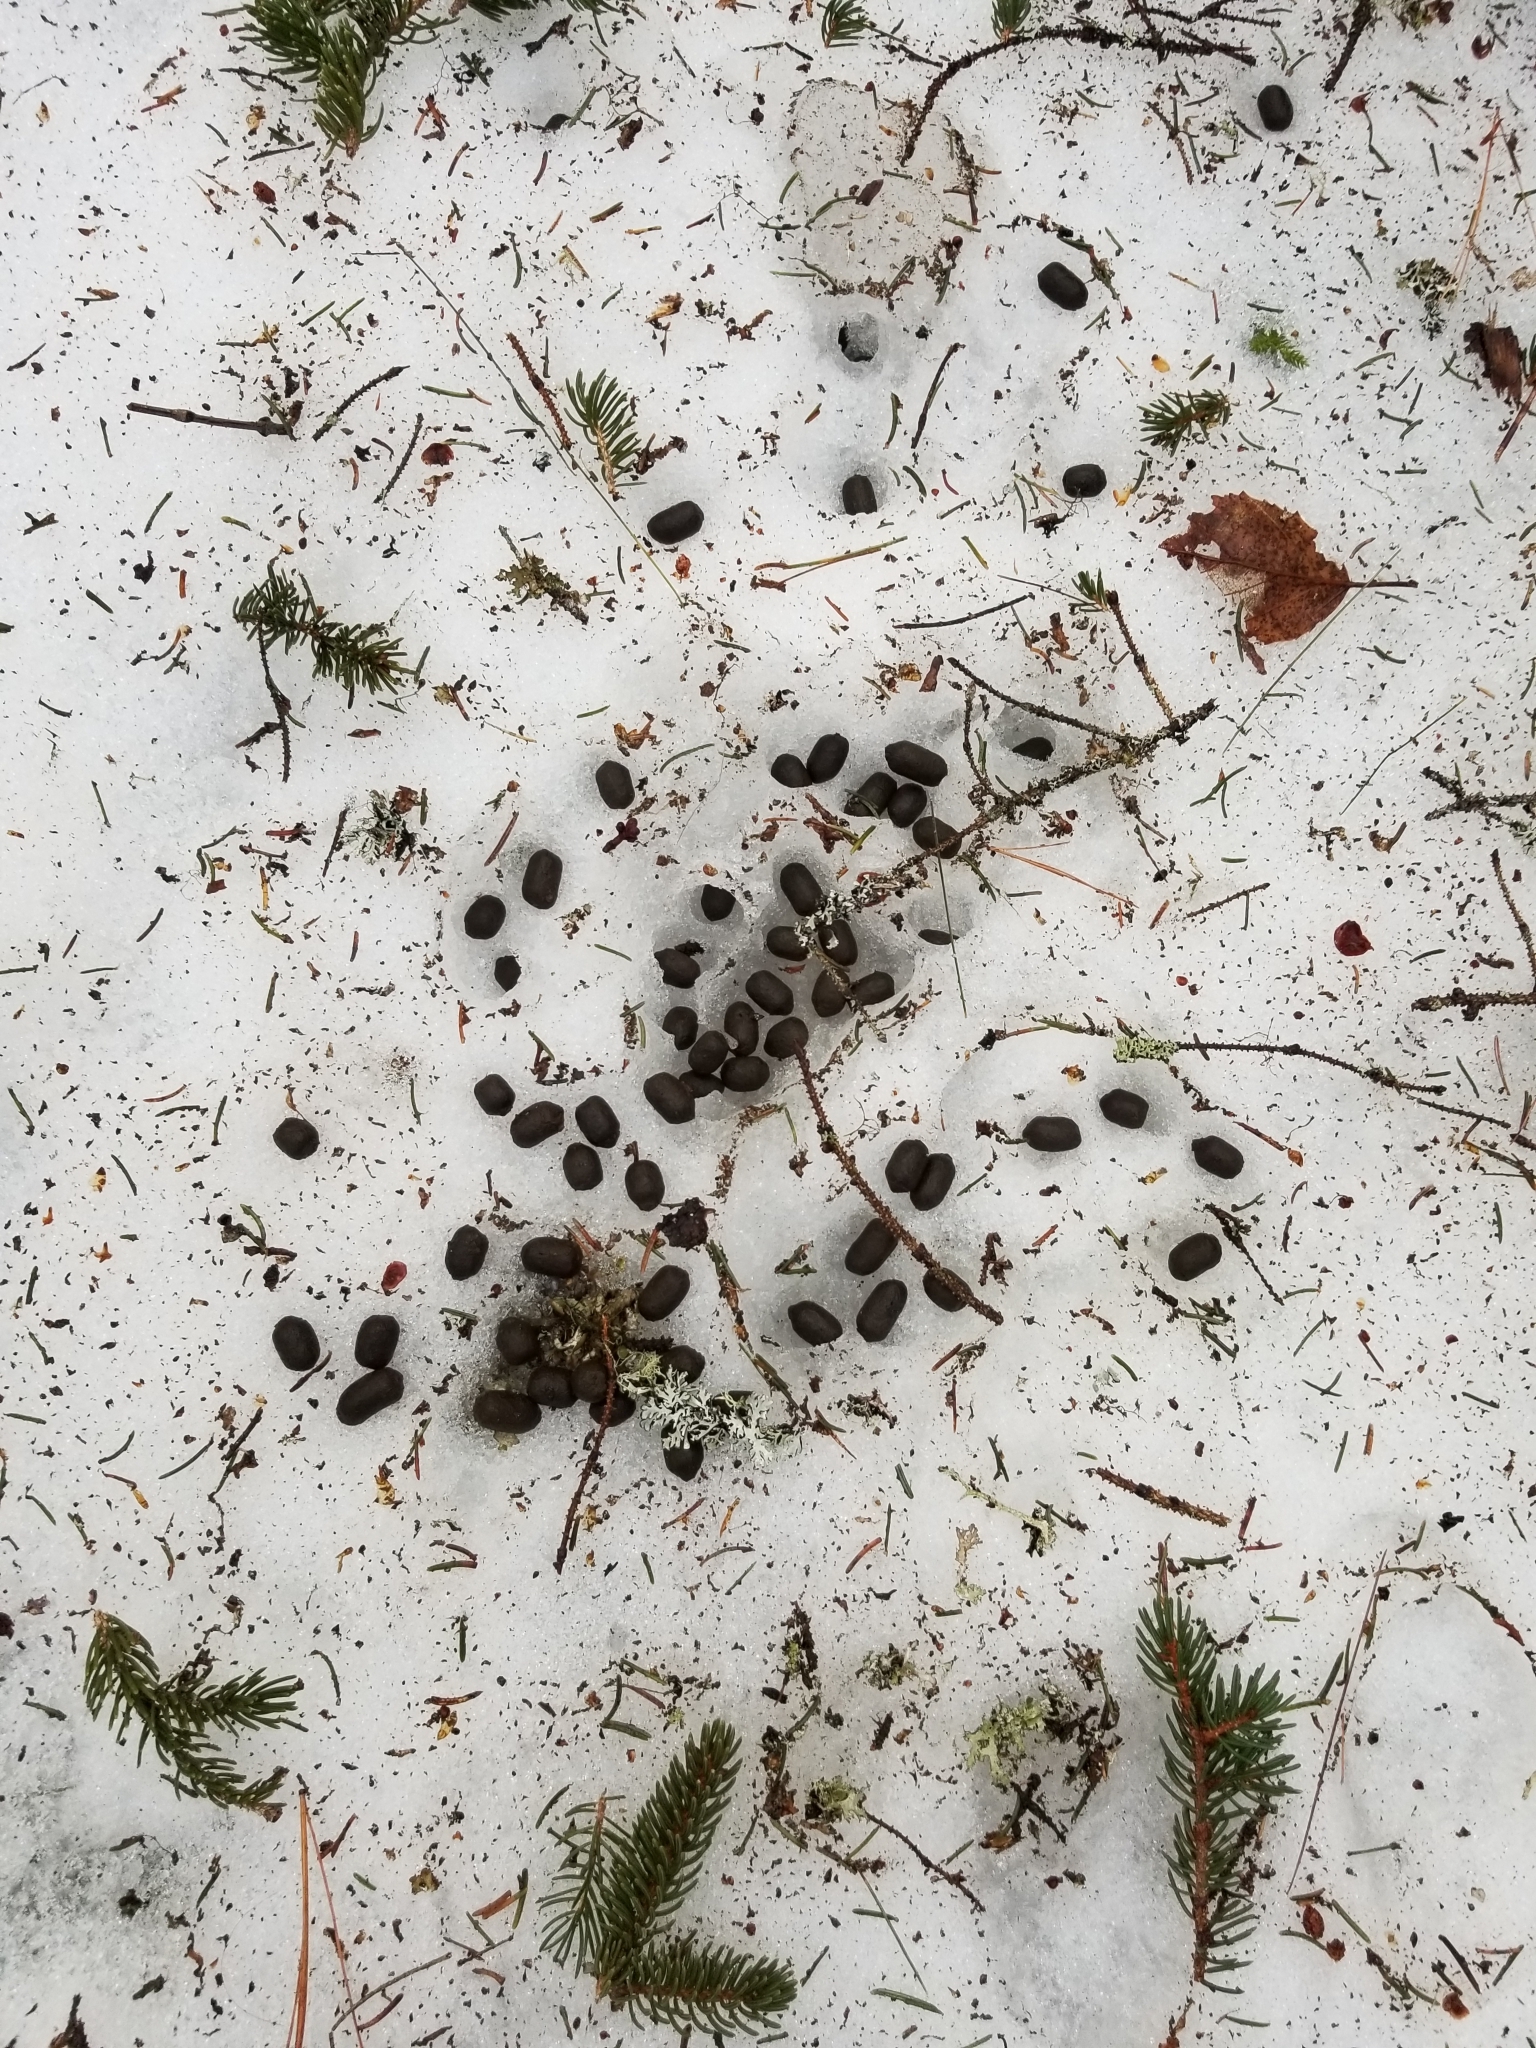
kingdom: Animalia
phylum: Chordata
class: Mammalia
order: Artiodactyla
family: Cervidae
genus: Odocoileus
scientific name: Odocoileus virginianus
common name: White-tailed deer
